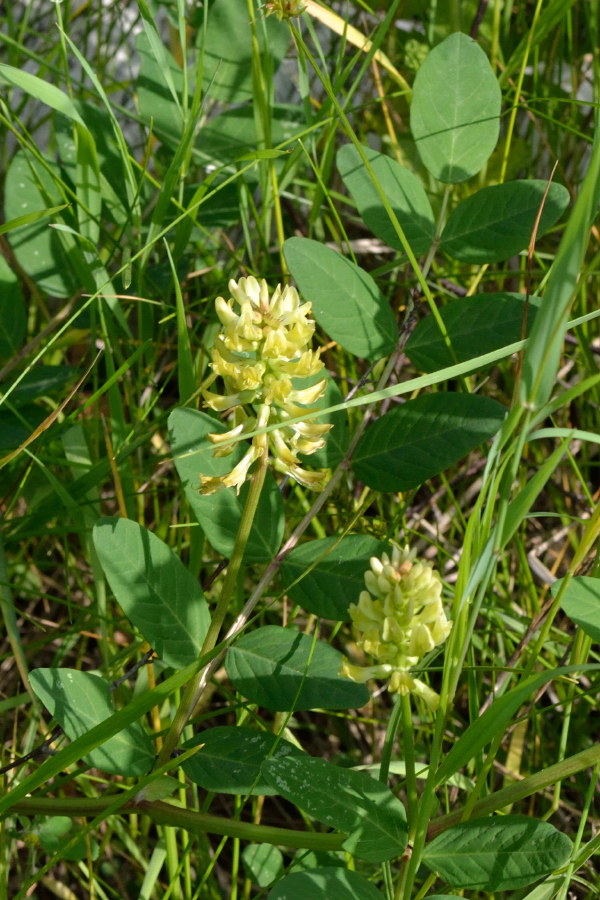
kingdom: Plantae
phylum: Tracheophyta
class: Magnoliopsida
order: Fabales
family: Fabaceae
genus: Astragalus
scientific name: Astragalus glycyphyllos
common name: Wild liquorice
